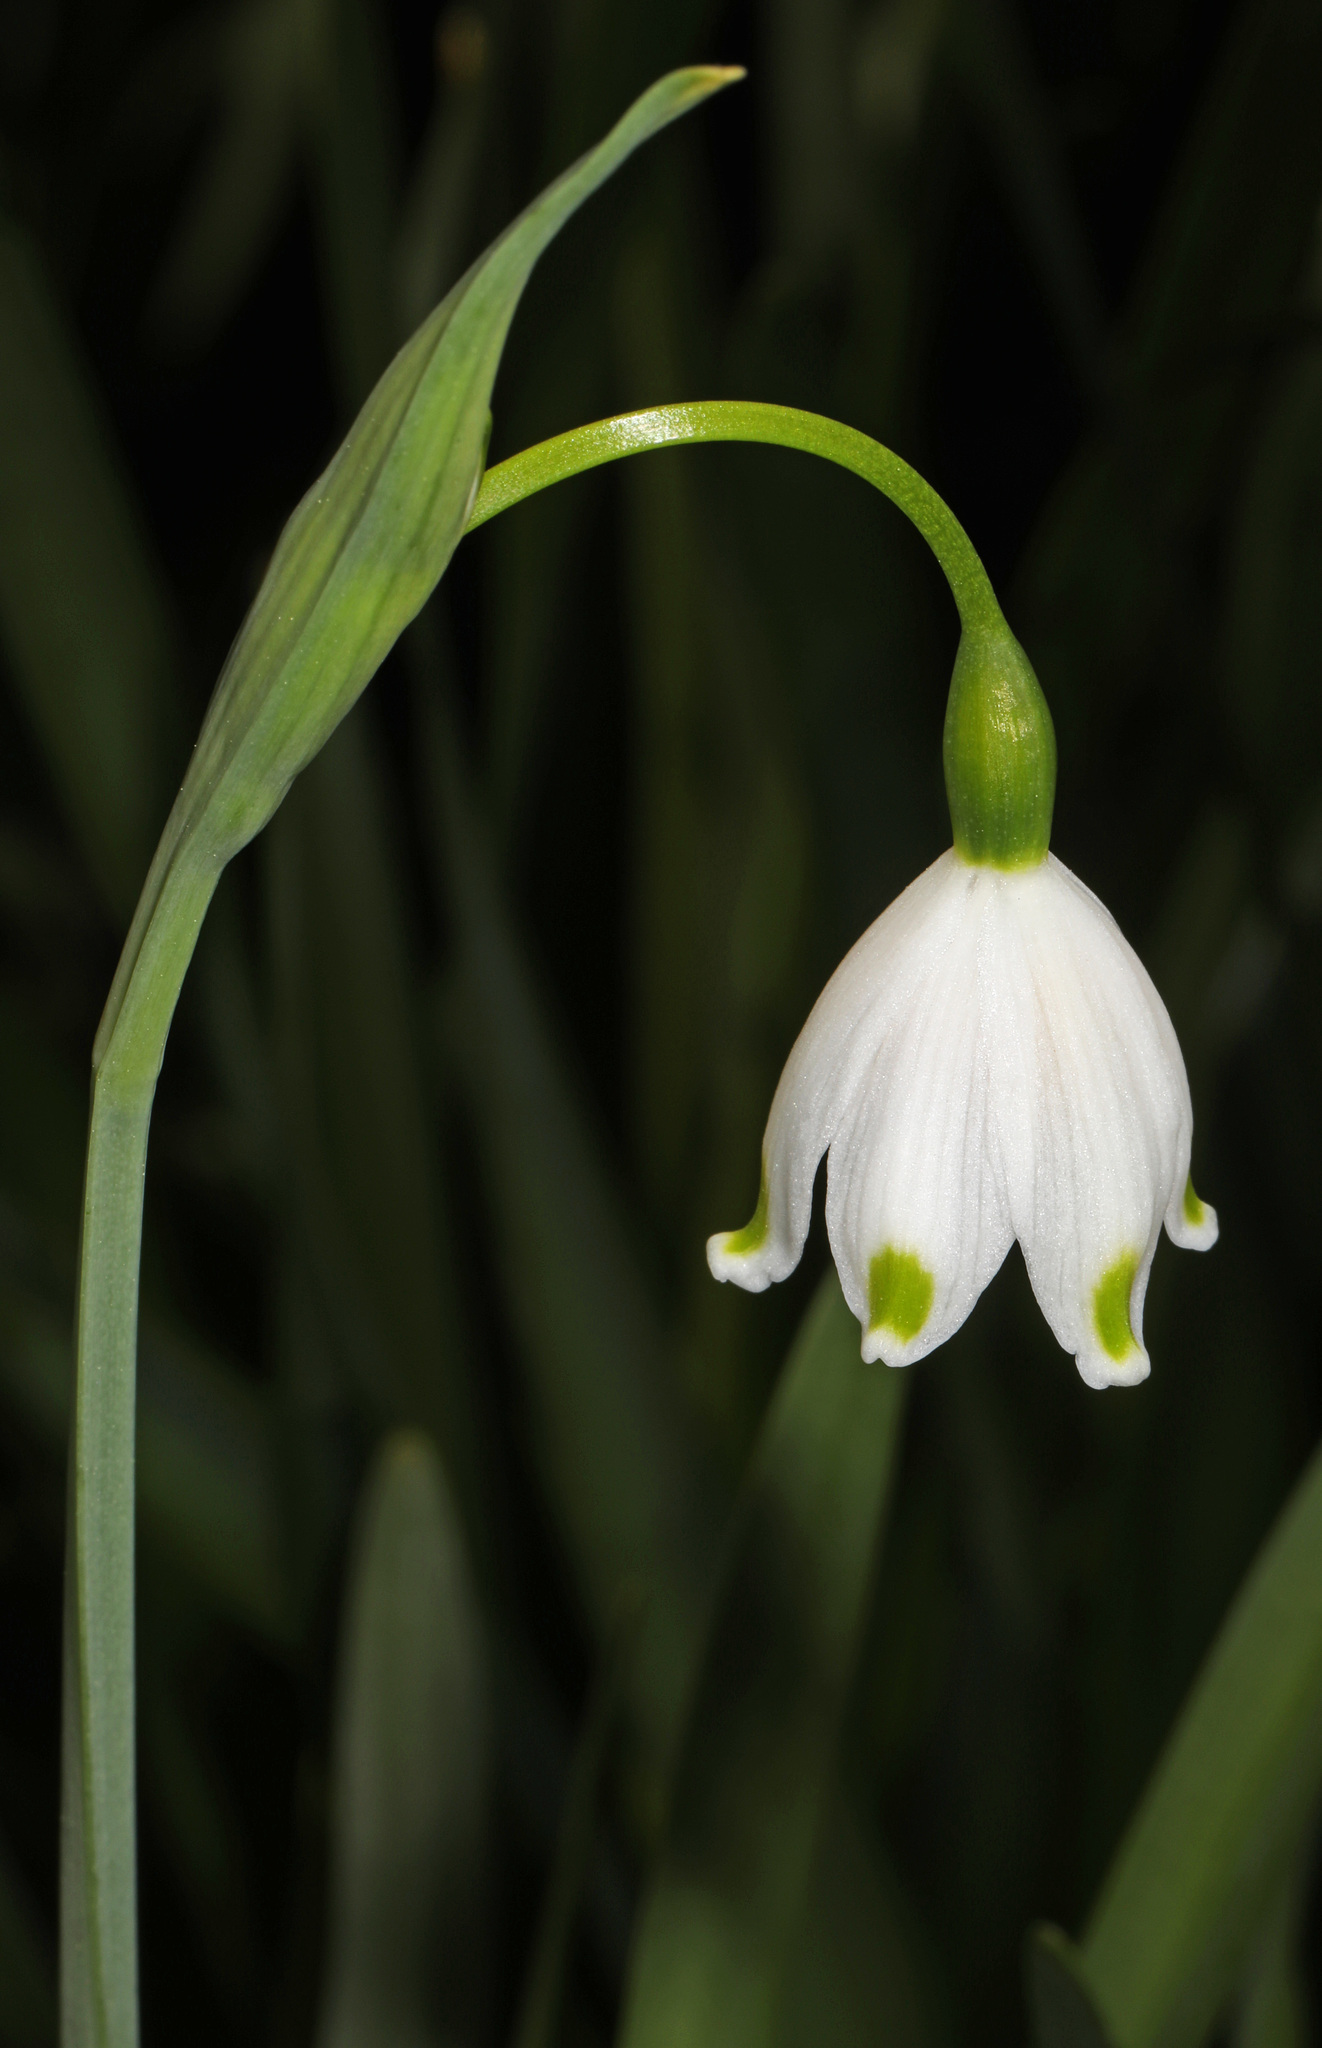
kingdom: Plantae
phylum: Tracheophyta
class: Liliopsida
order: Asparagales
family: Amaryllidaceae
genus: Leucojum
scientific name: Leucojum aestivum
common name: Summer snowflake
